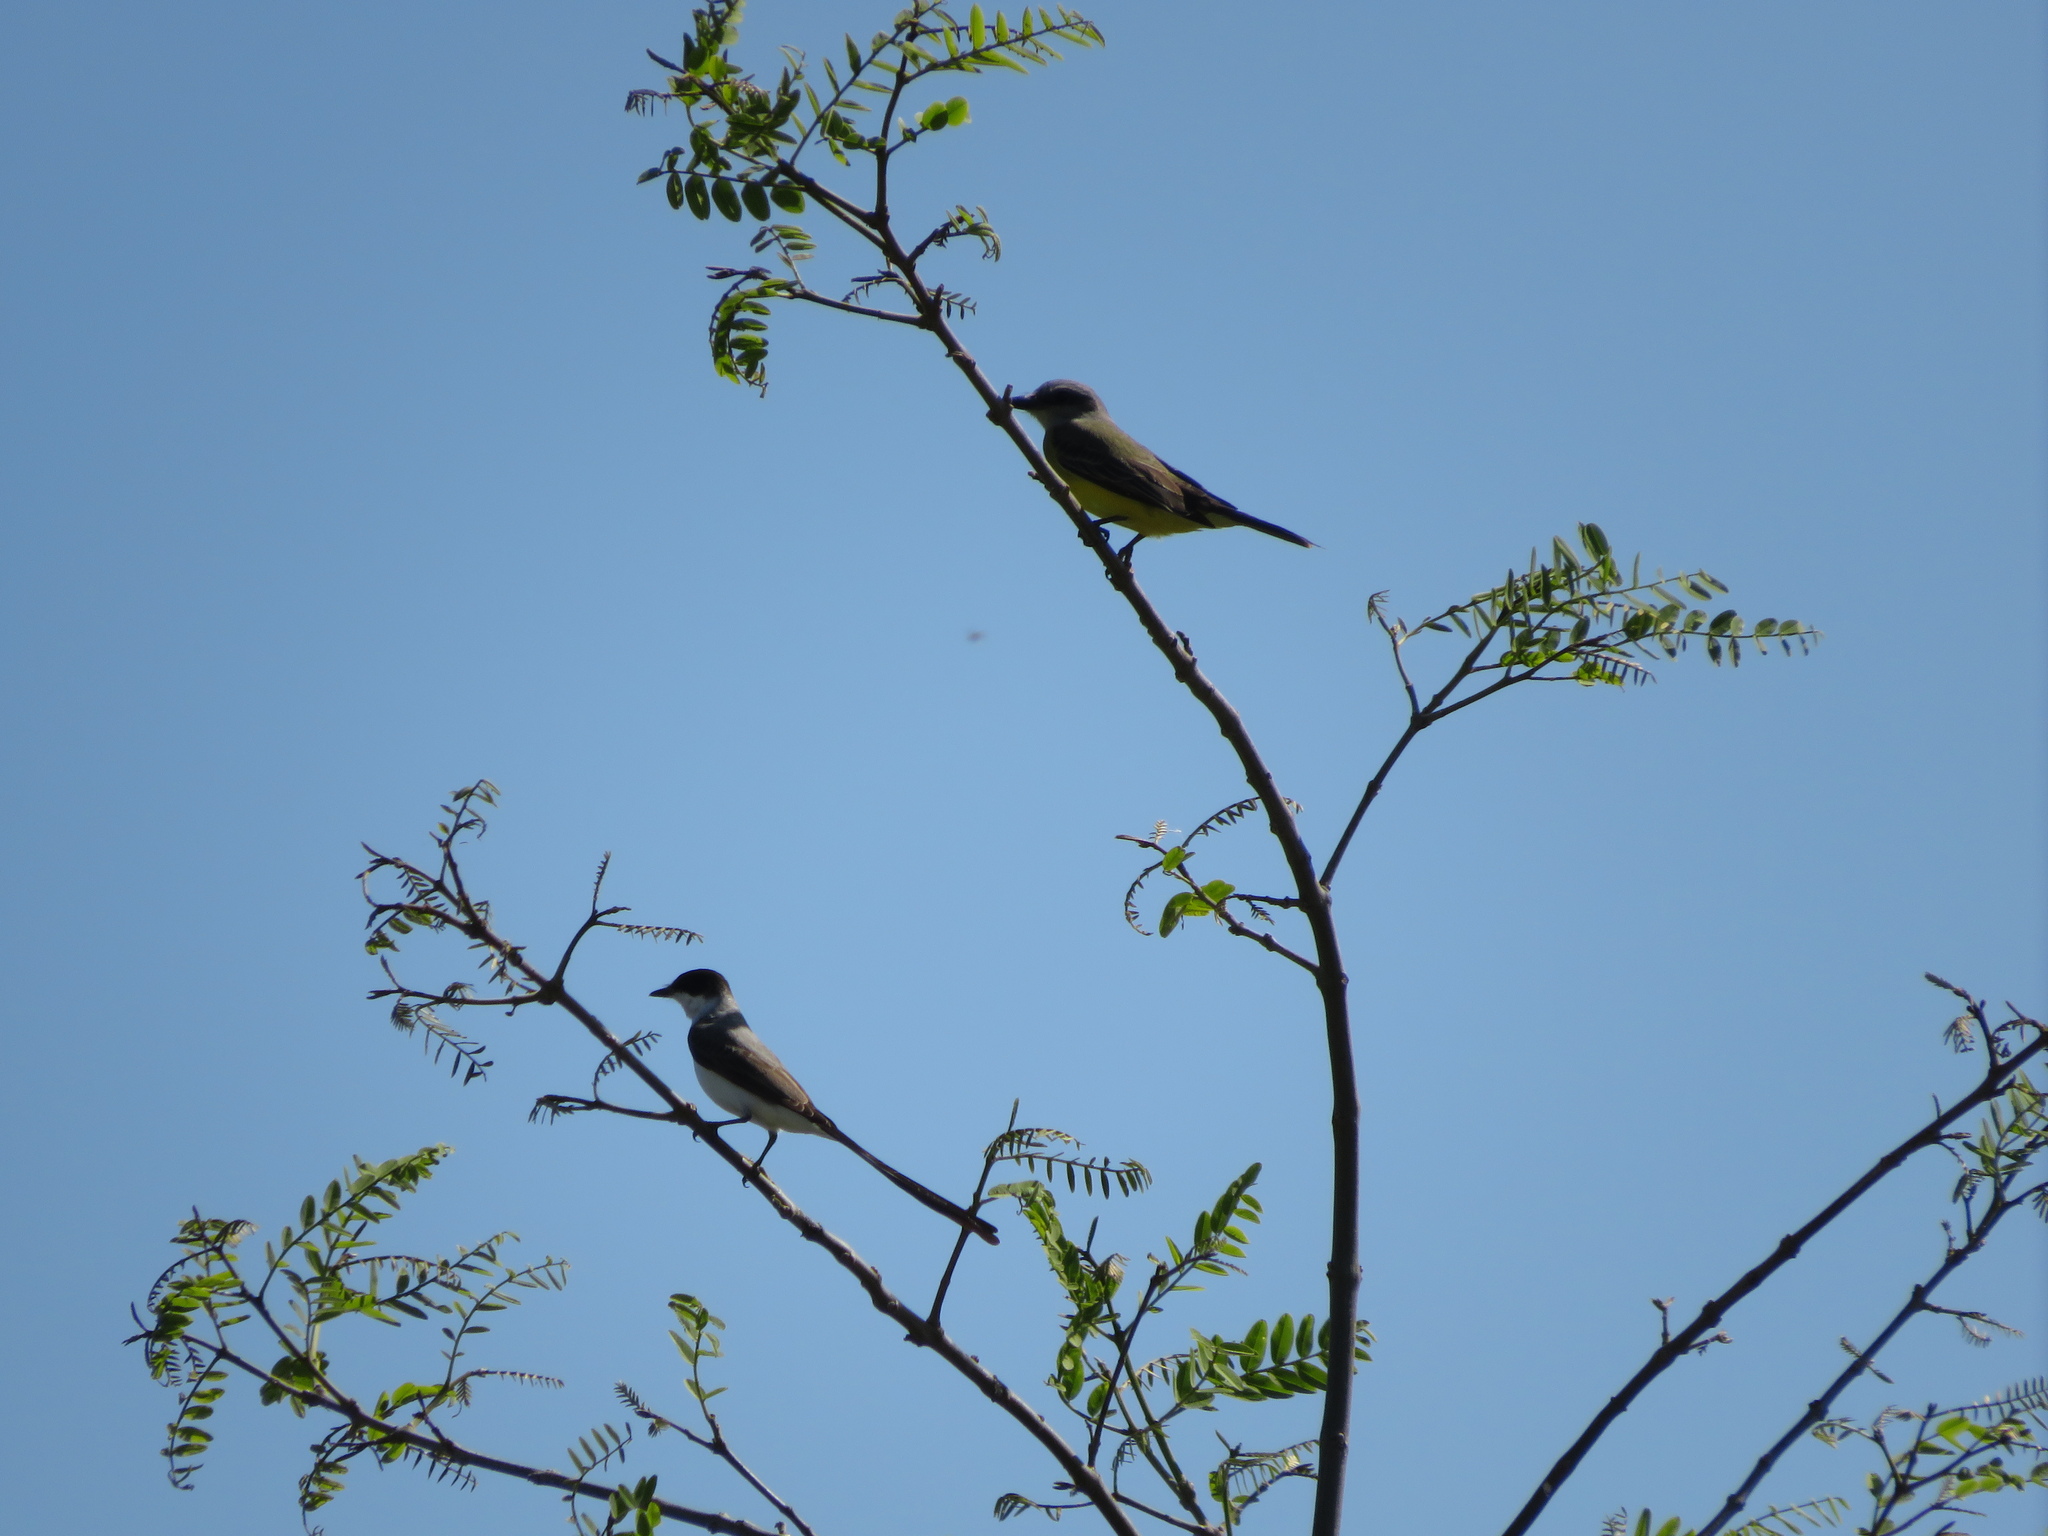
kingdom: Animalia
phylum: Chordata
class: Aves
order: Passeriformes
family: Tyrannidae
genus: Tyrannus
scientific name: Tyrannus savana
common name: Fork-tailed flycatcher
